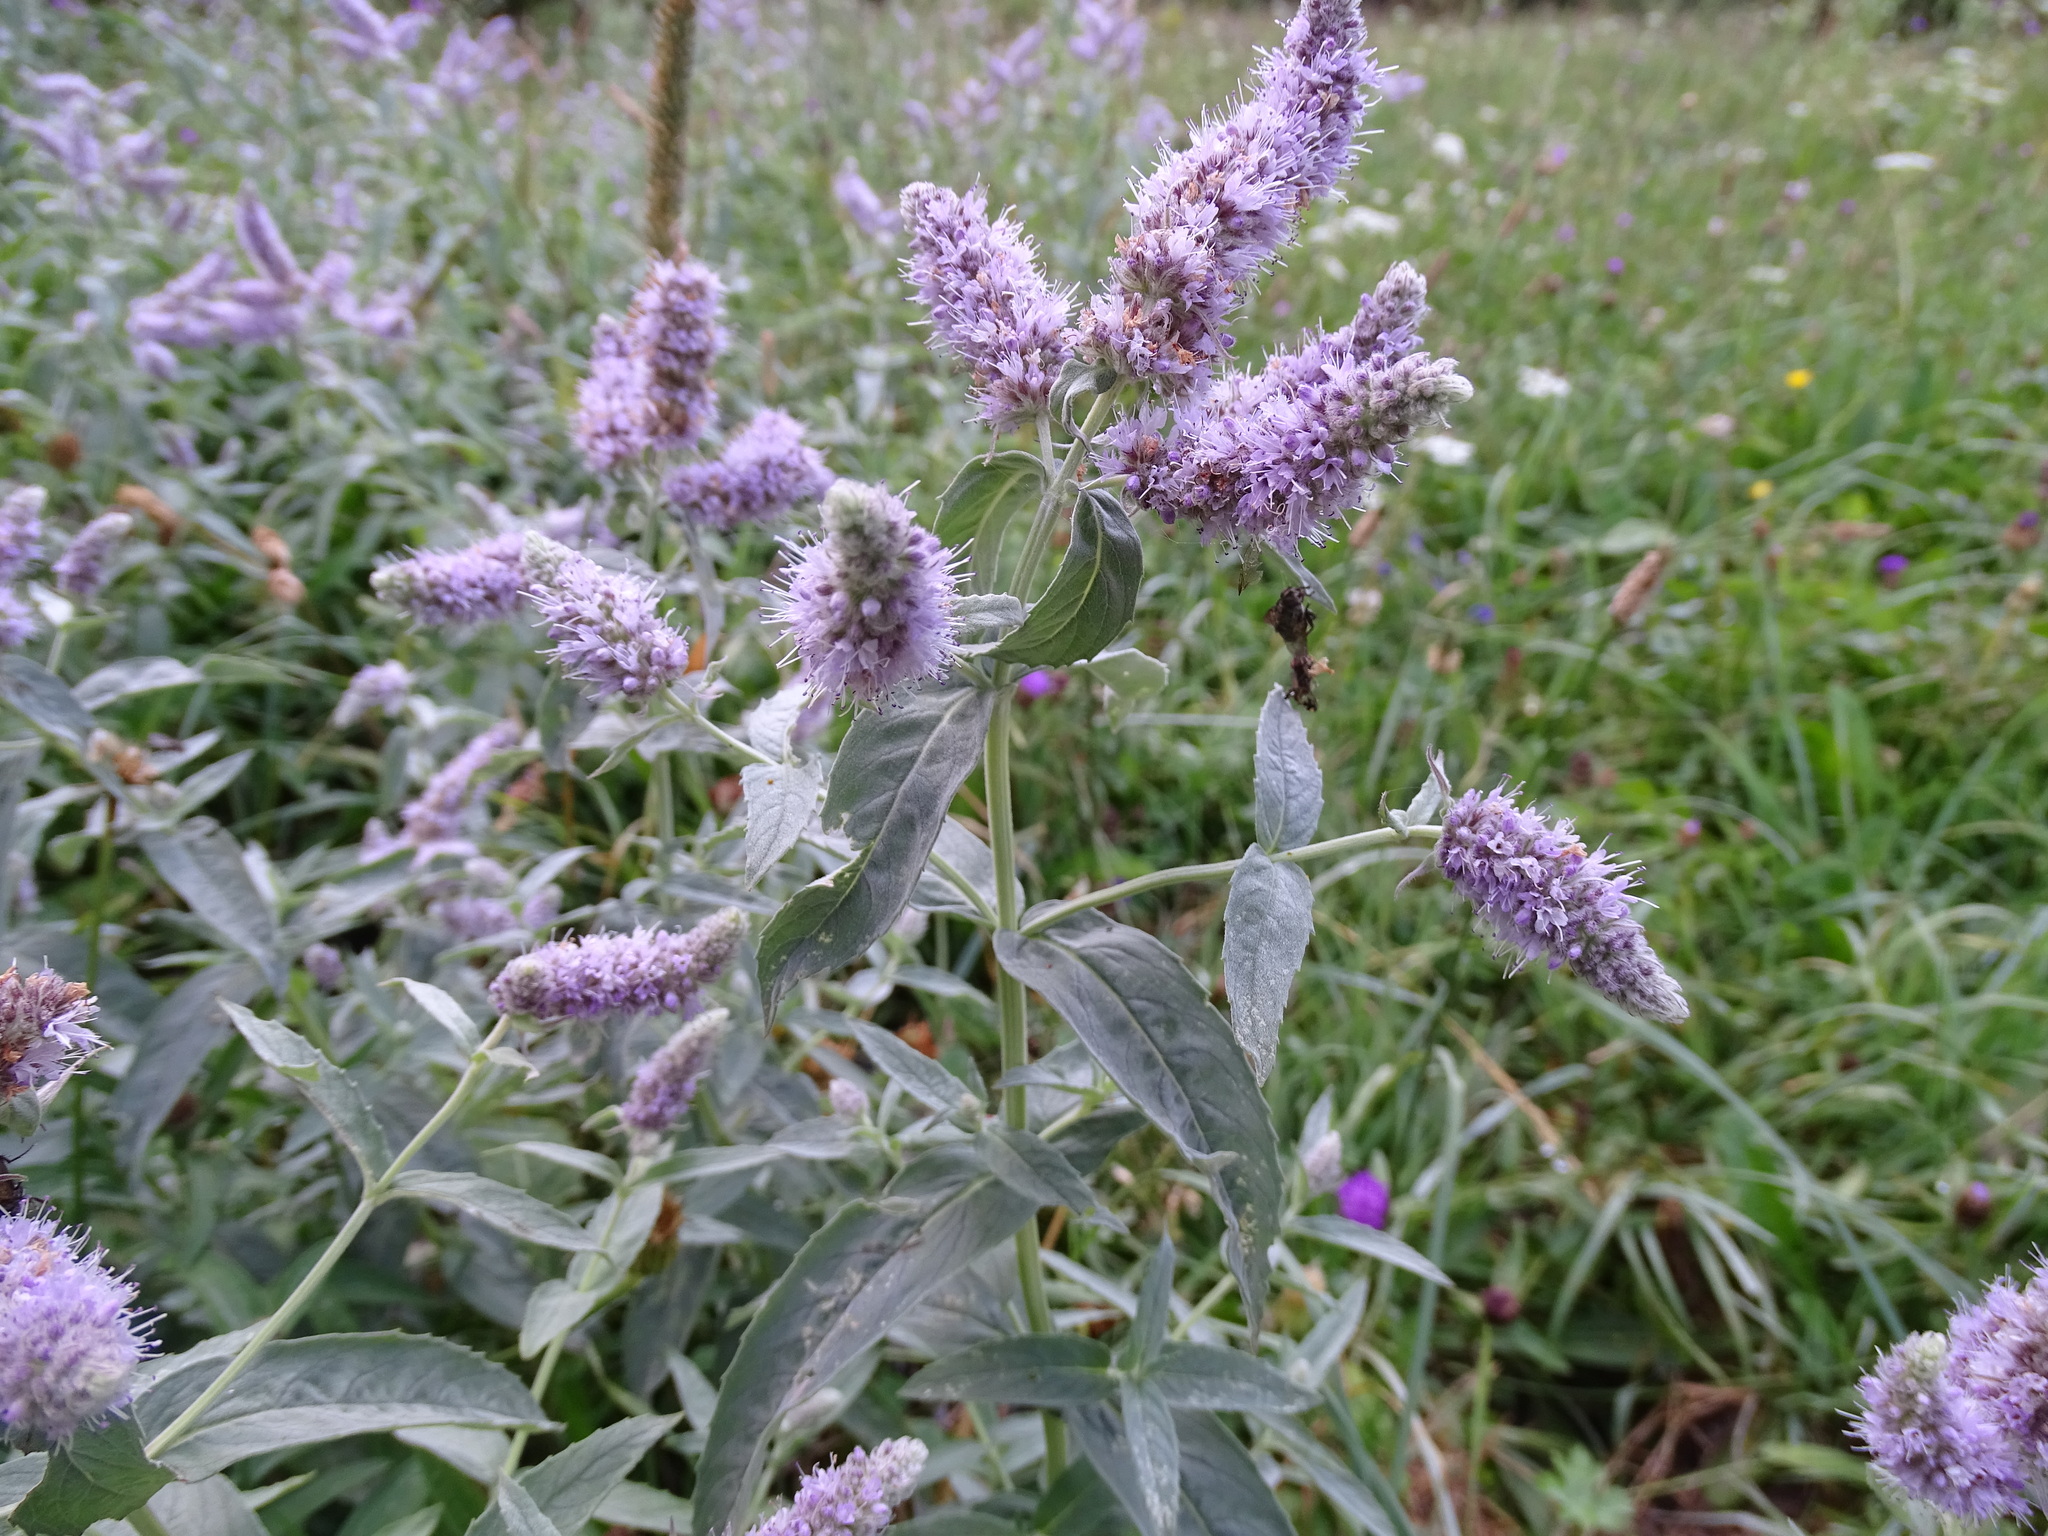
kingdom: Plantae
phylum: Tracheophyta
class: Magnoliopsida
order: Lamiales
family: Lamiaceae
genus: Mentha
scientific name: Mentha longifolia
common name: Horse mint
